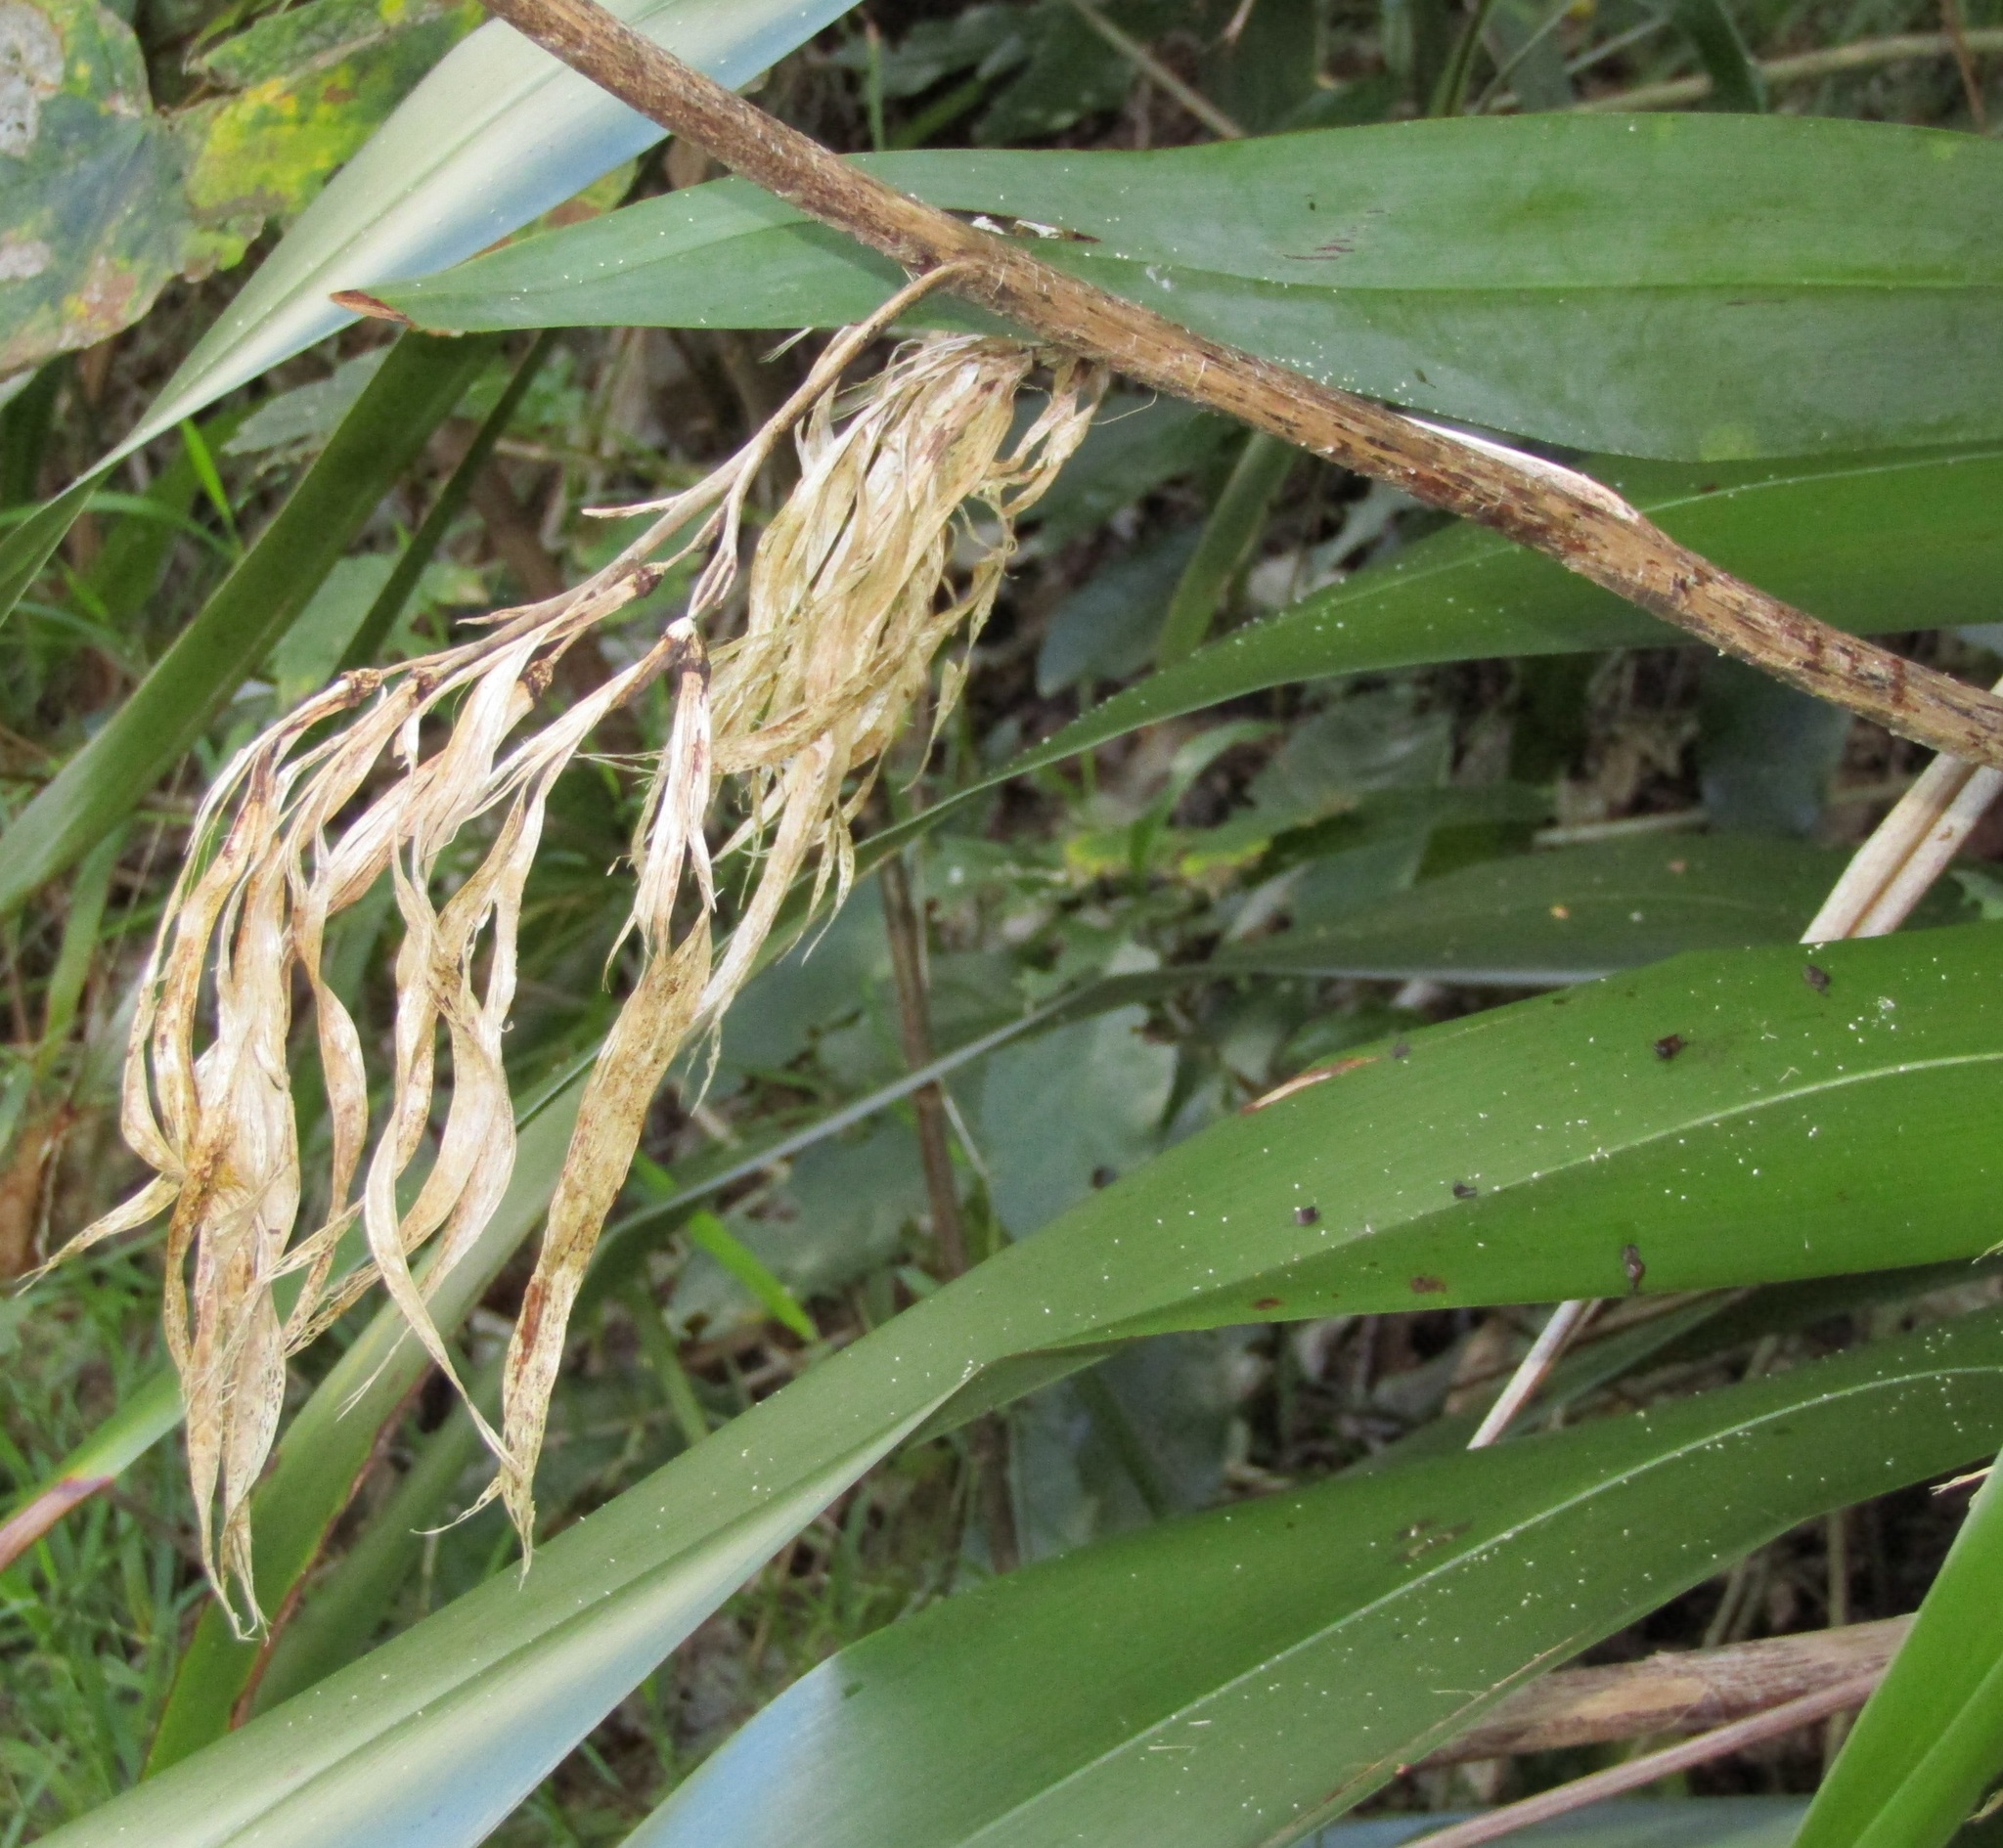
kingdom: Plantae
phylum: Tracheophyta
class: Liliopsida
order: Asparagales
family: Asphodelaceae
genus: Phormium
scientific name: Phormium colensoi
